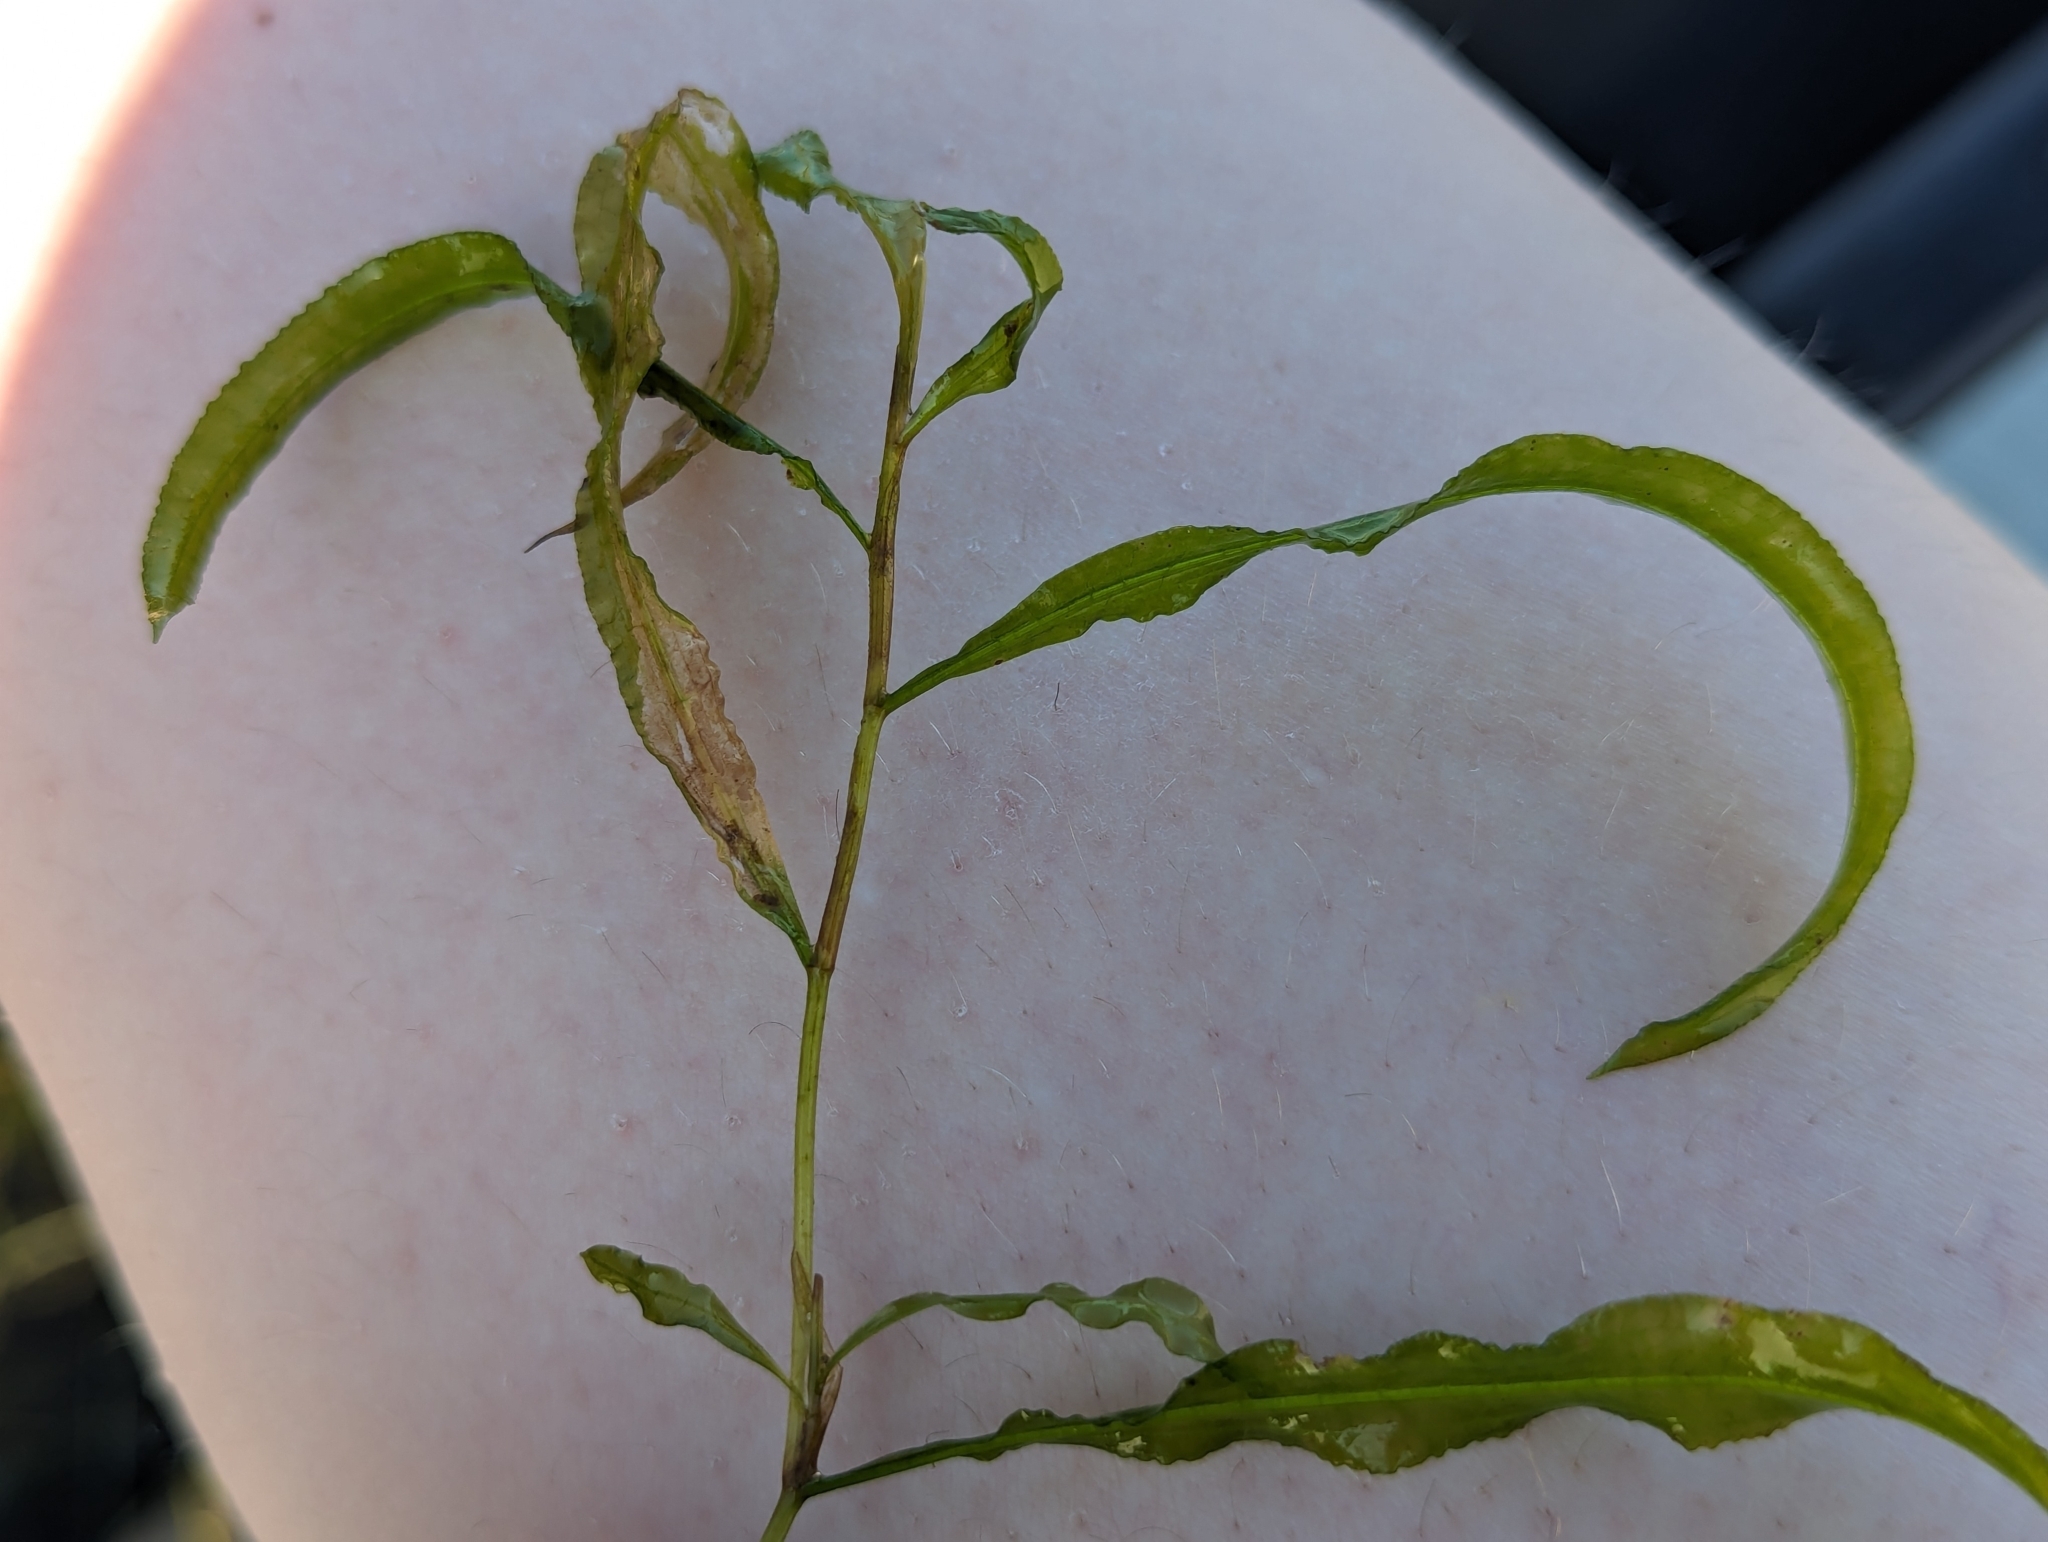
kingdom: Plantae
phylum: Tracheophyta
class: Liliopsida
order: Alismatales
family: Potamogetonaceae
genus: Potamogeton
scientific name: Potamogeton illinoensis
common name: Illinois pondweed
